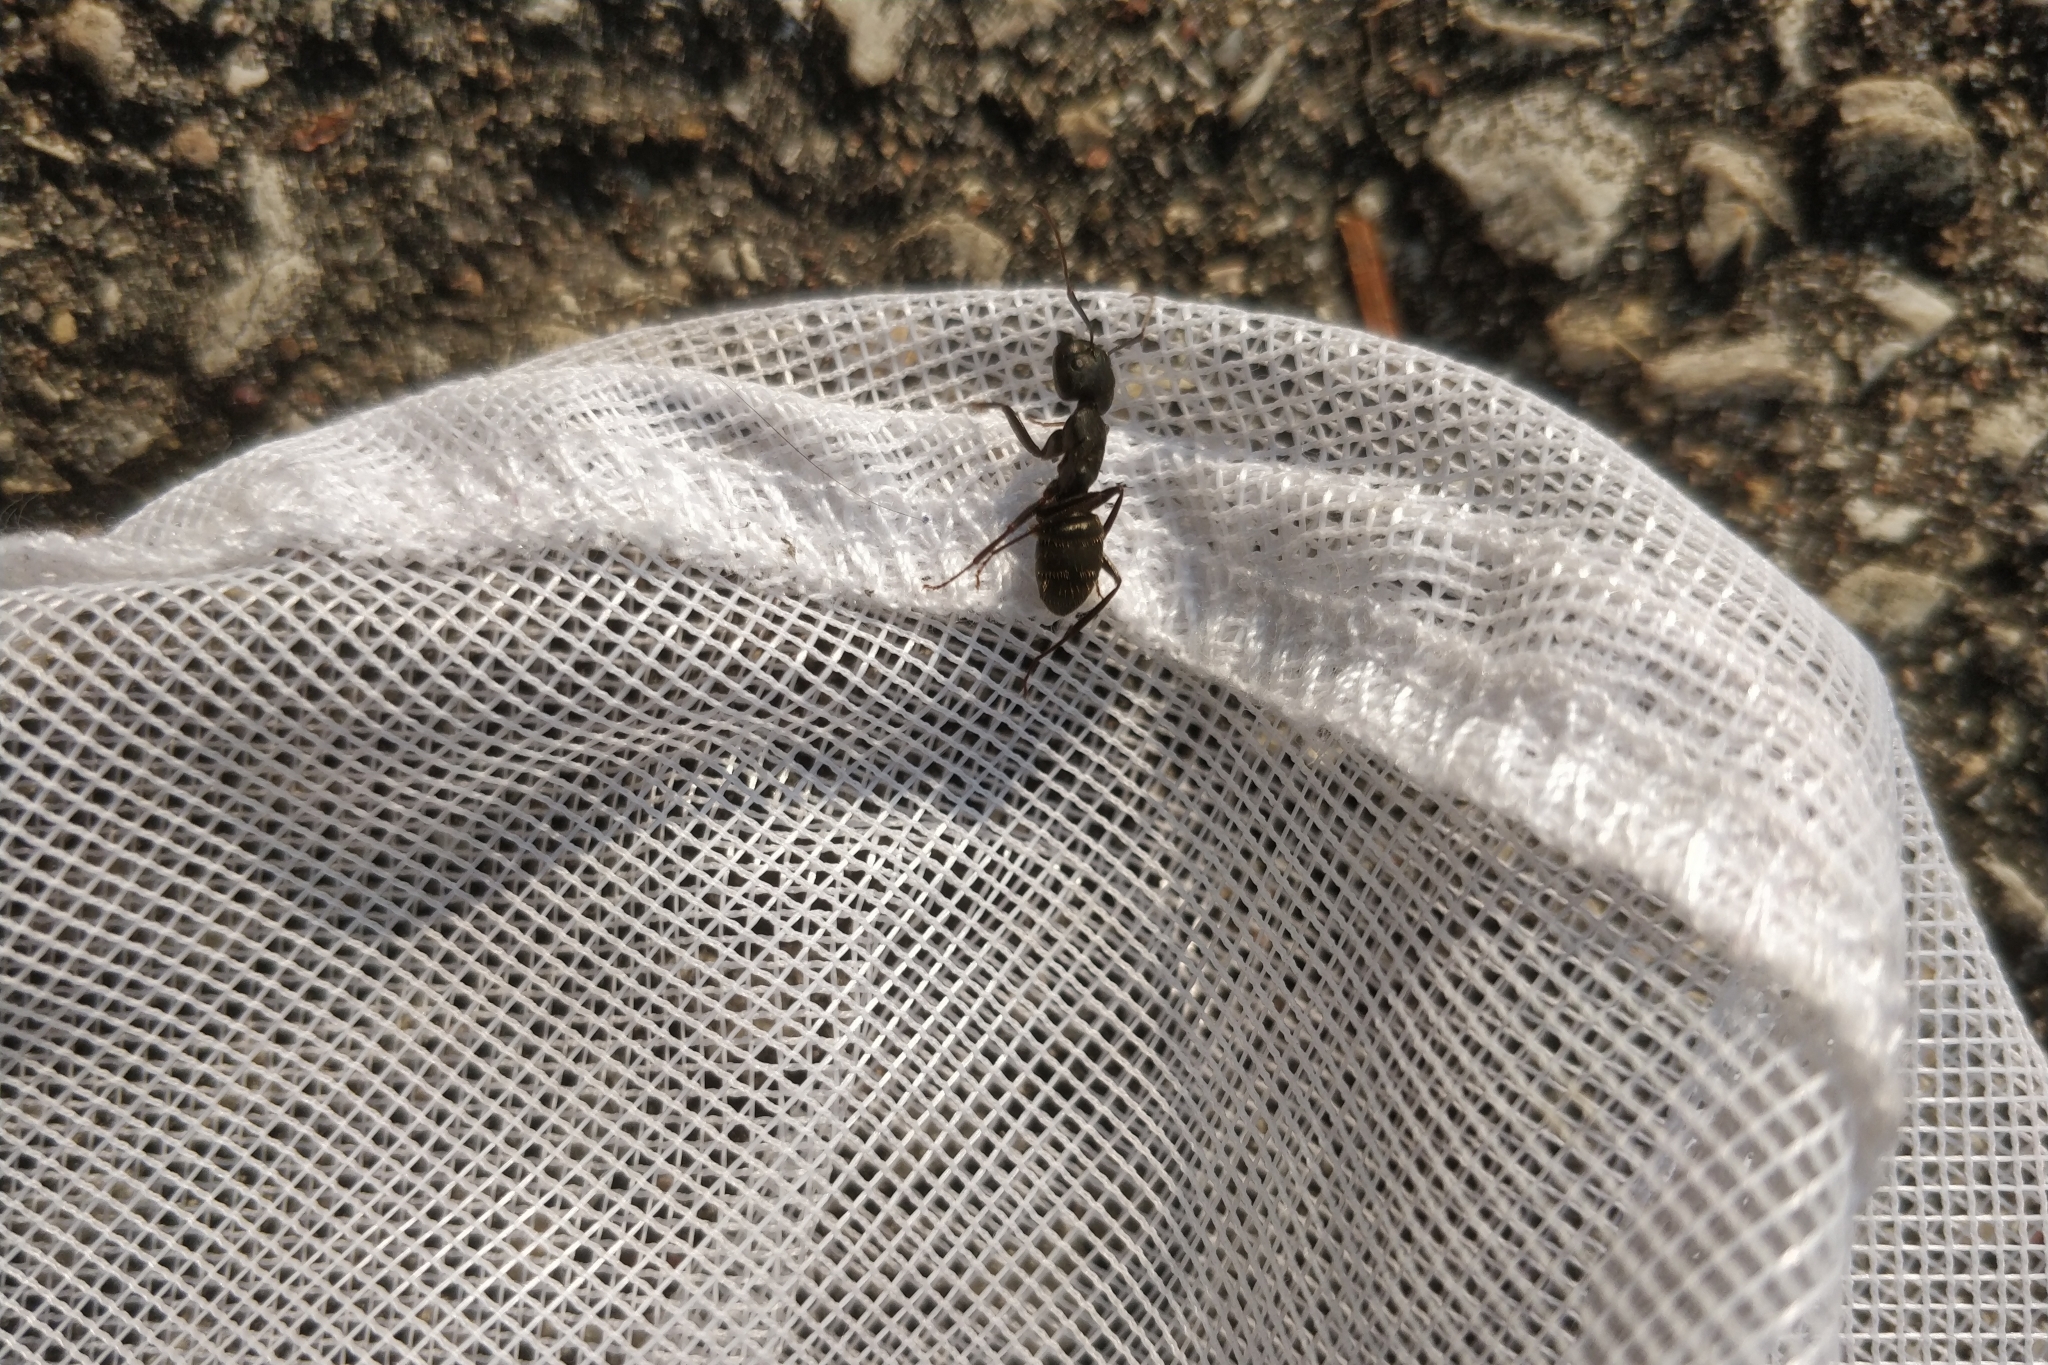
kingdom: Animalia
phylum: Arthropoda
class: Insecta
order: Hymenoptera
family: Formicidae
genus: Camponotus
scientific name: Camponotus pennsylvanicus
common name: Black carpenter ant
